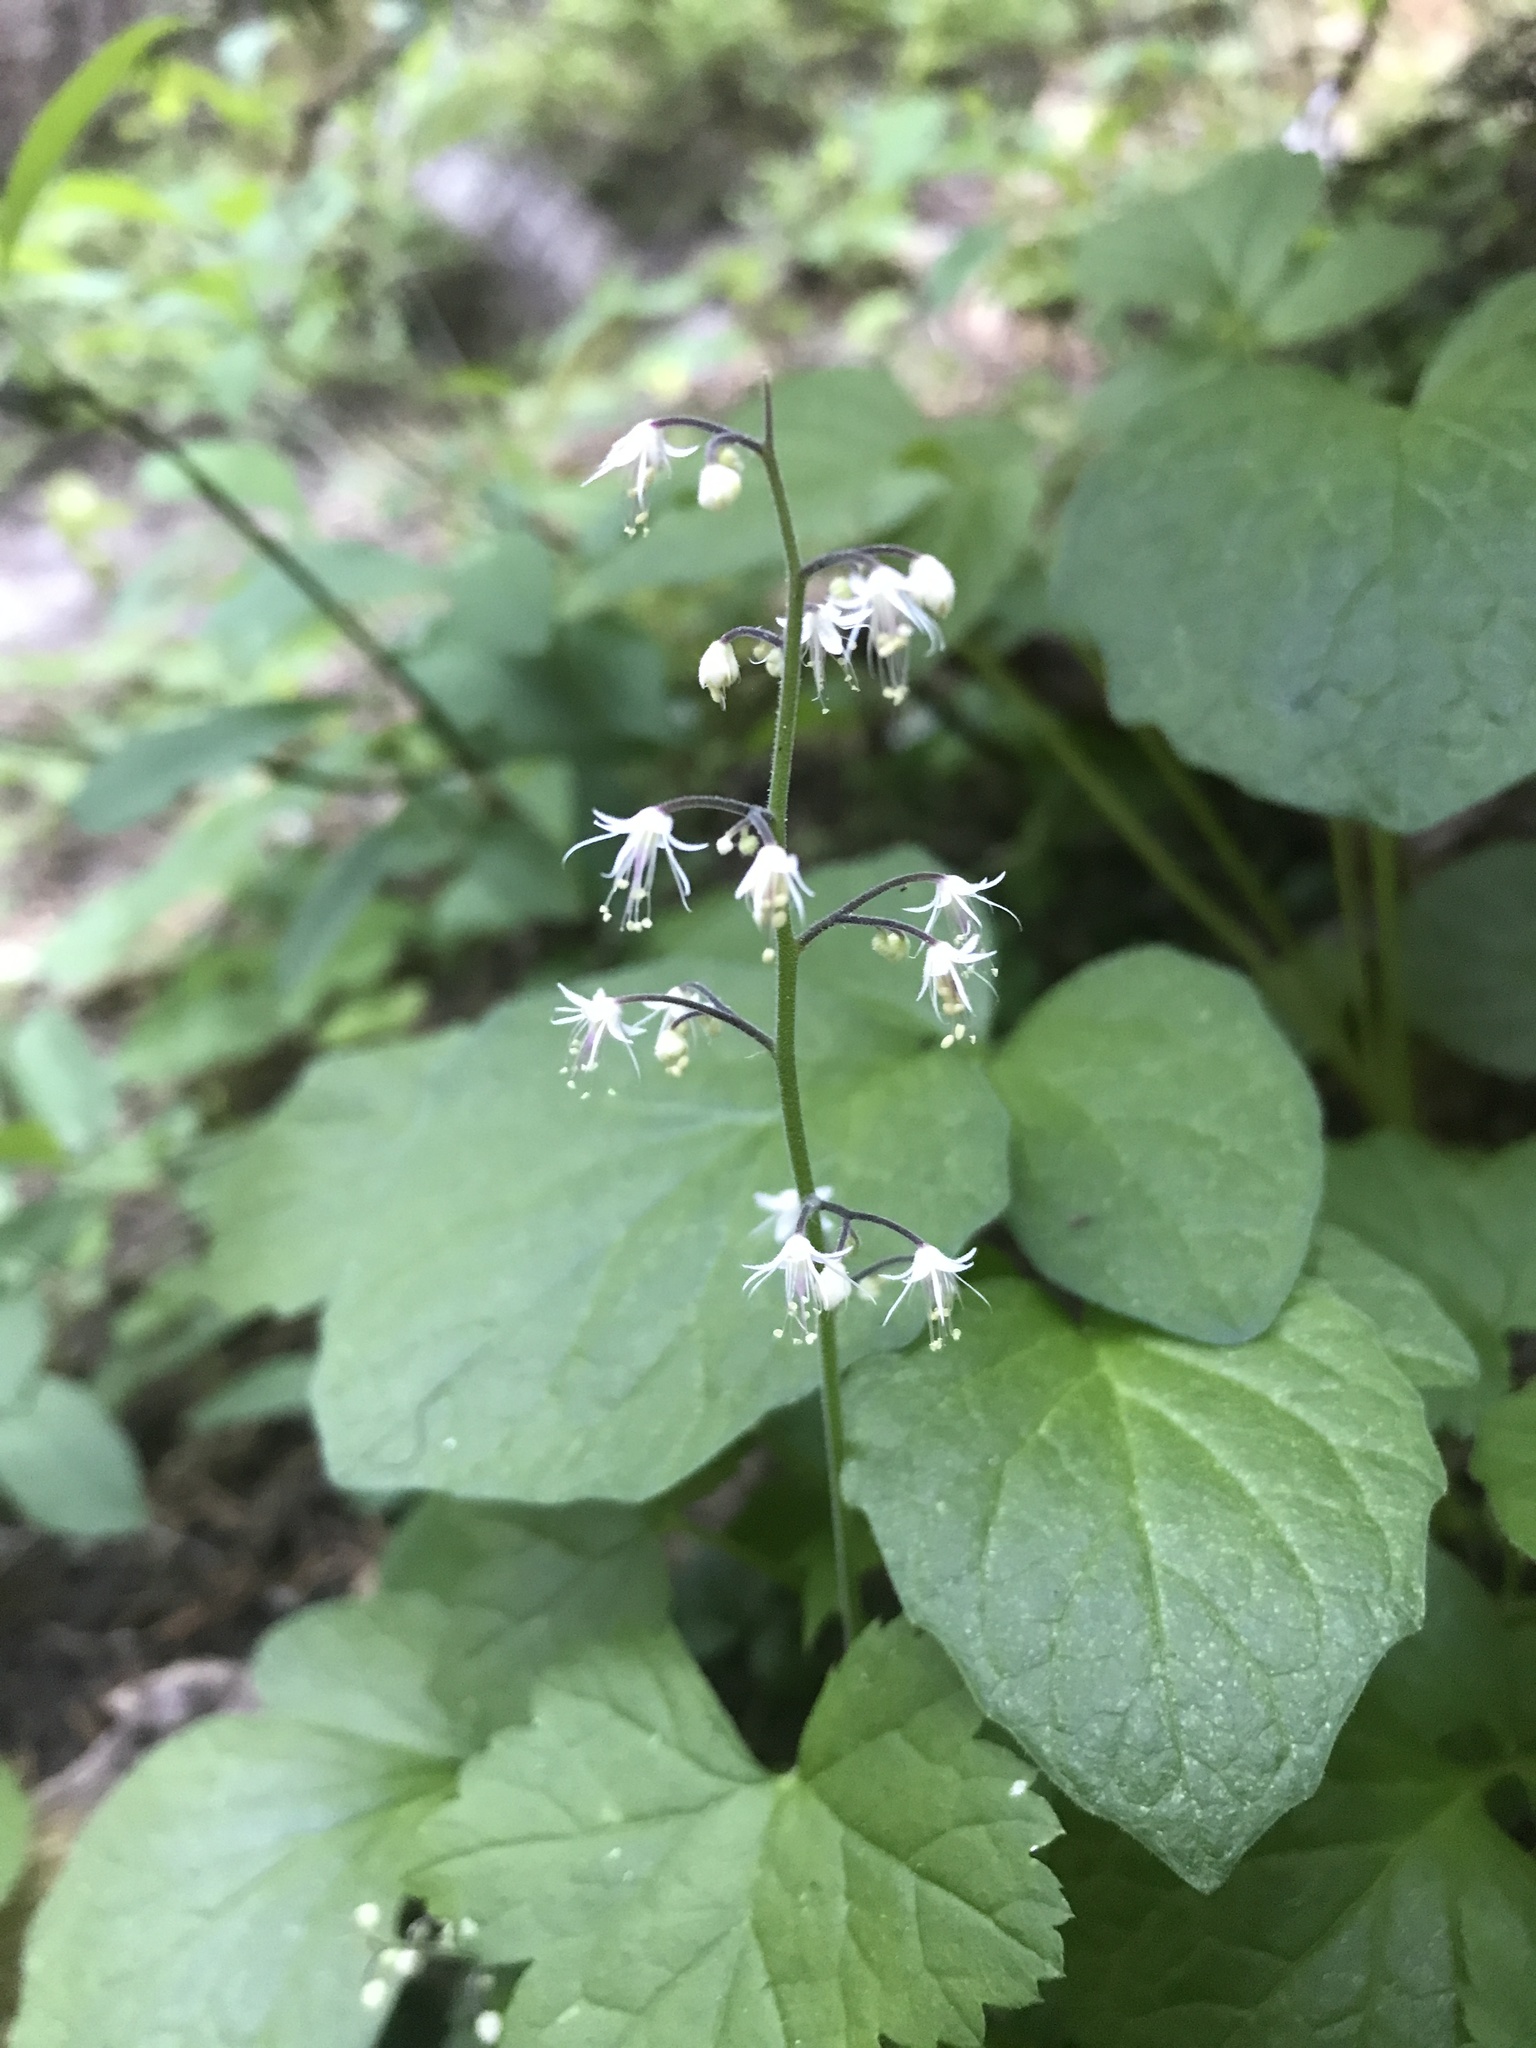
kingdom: Plantae
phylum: Tracheophyta
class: Magnoliopsida
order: Saxifragales
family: Saxifragaceae
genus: Tiarella
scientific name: Tiarella trifoliata
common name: Sugar-scoop
